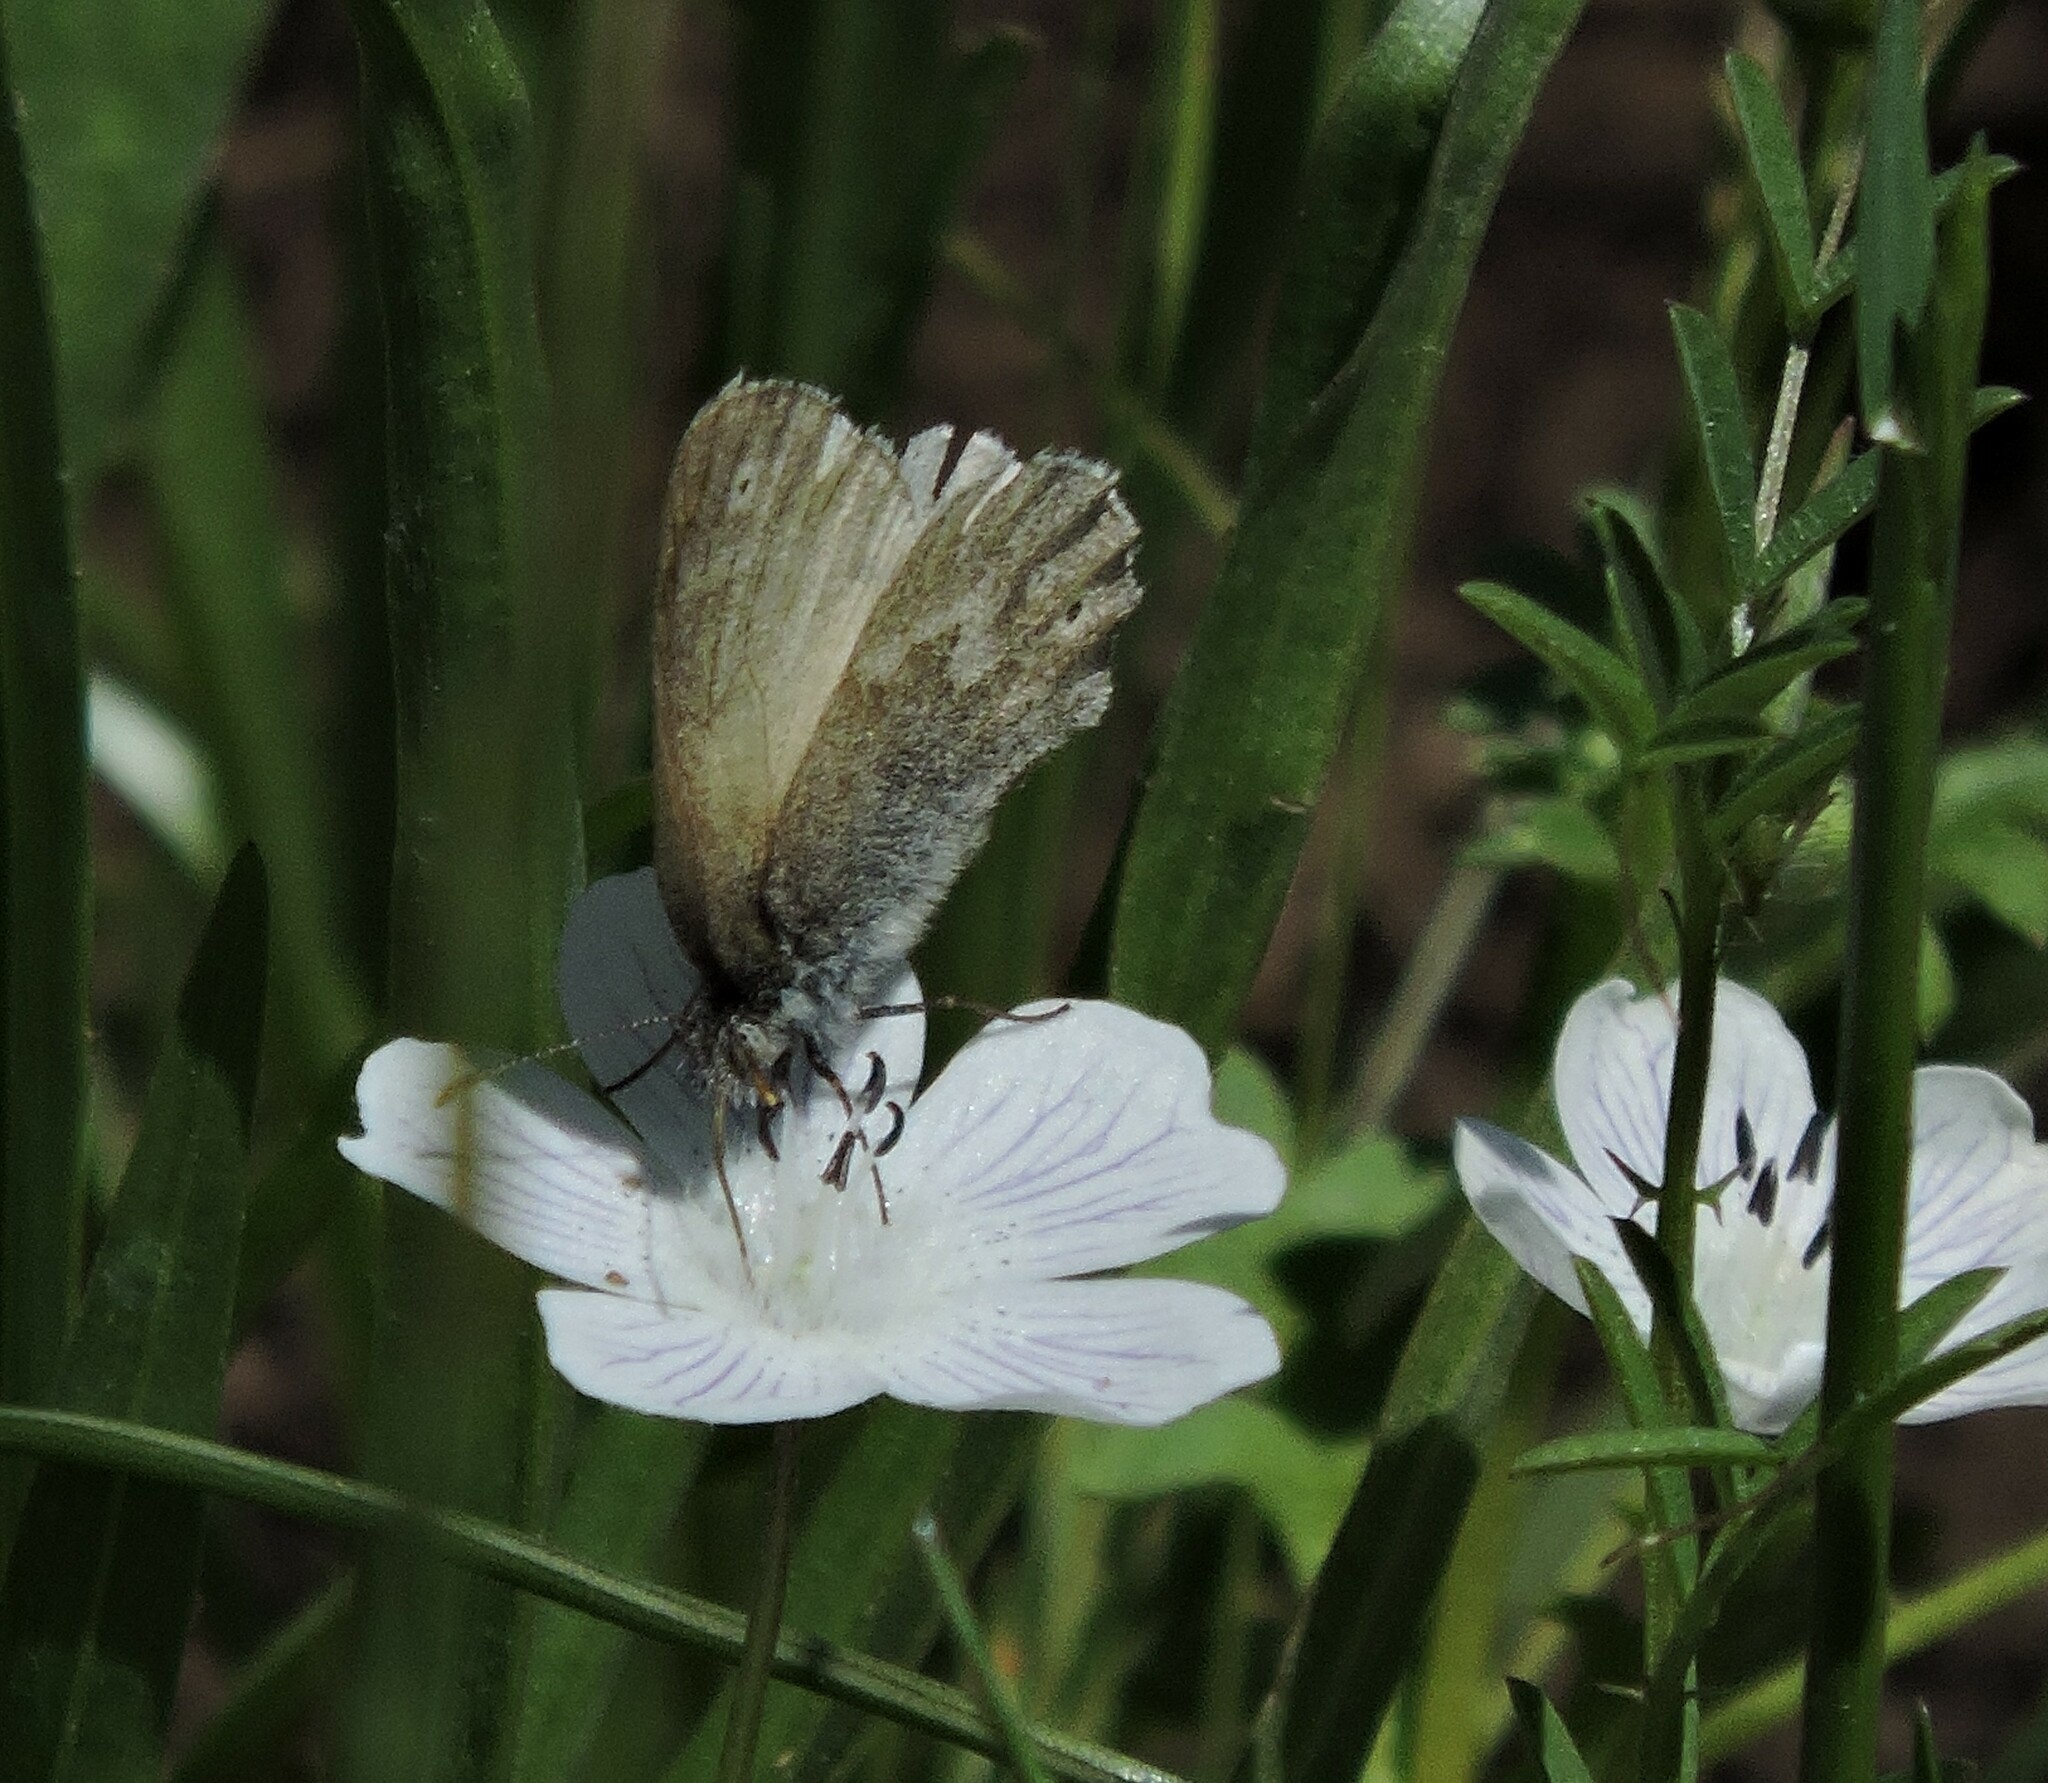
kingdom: Animalia
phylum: Arthropoda
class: Insecta
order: Lepidoptera
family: Nymphalidae
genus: Coenonympha
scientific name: Coenonympha california
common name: Common ringlet
